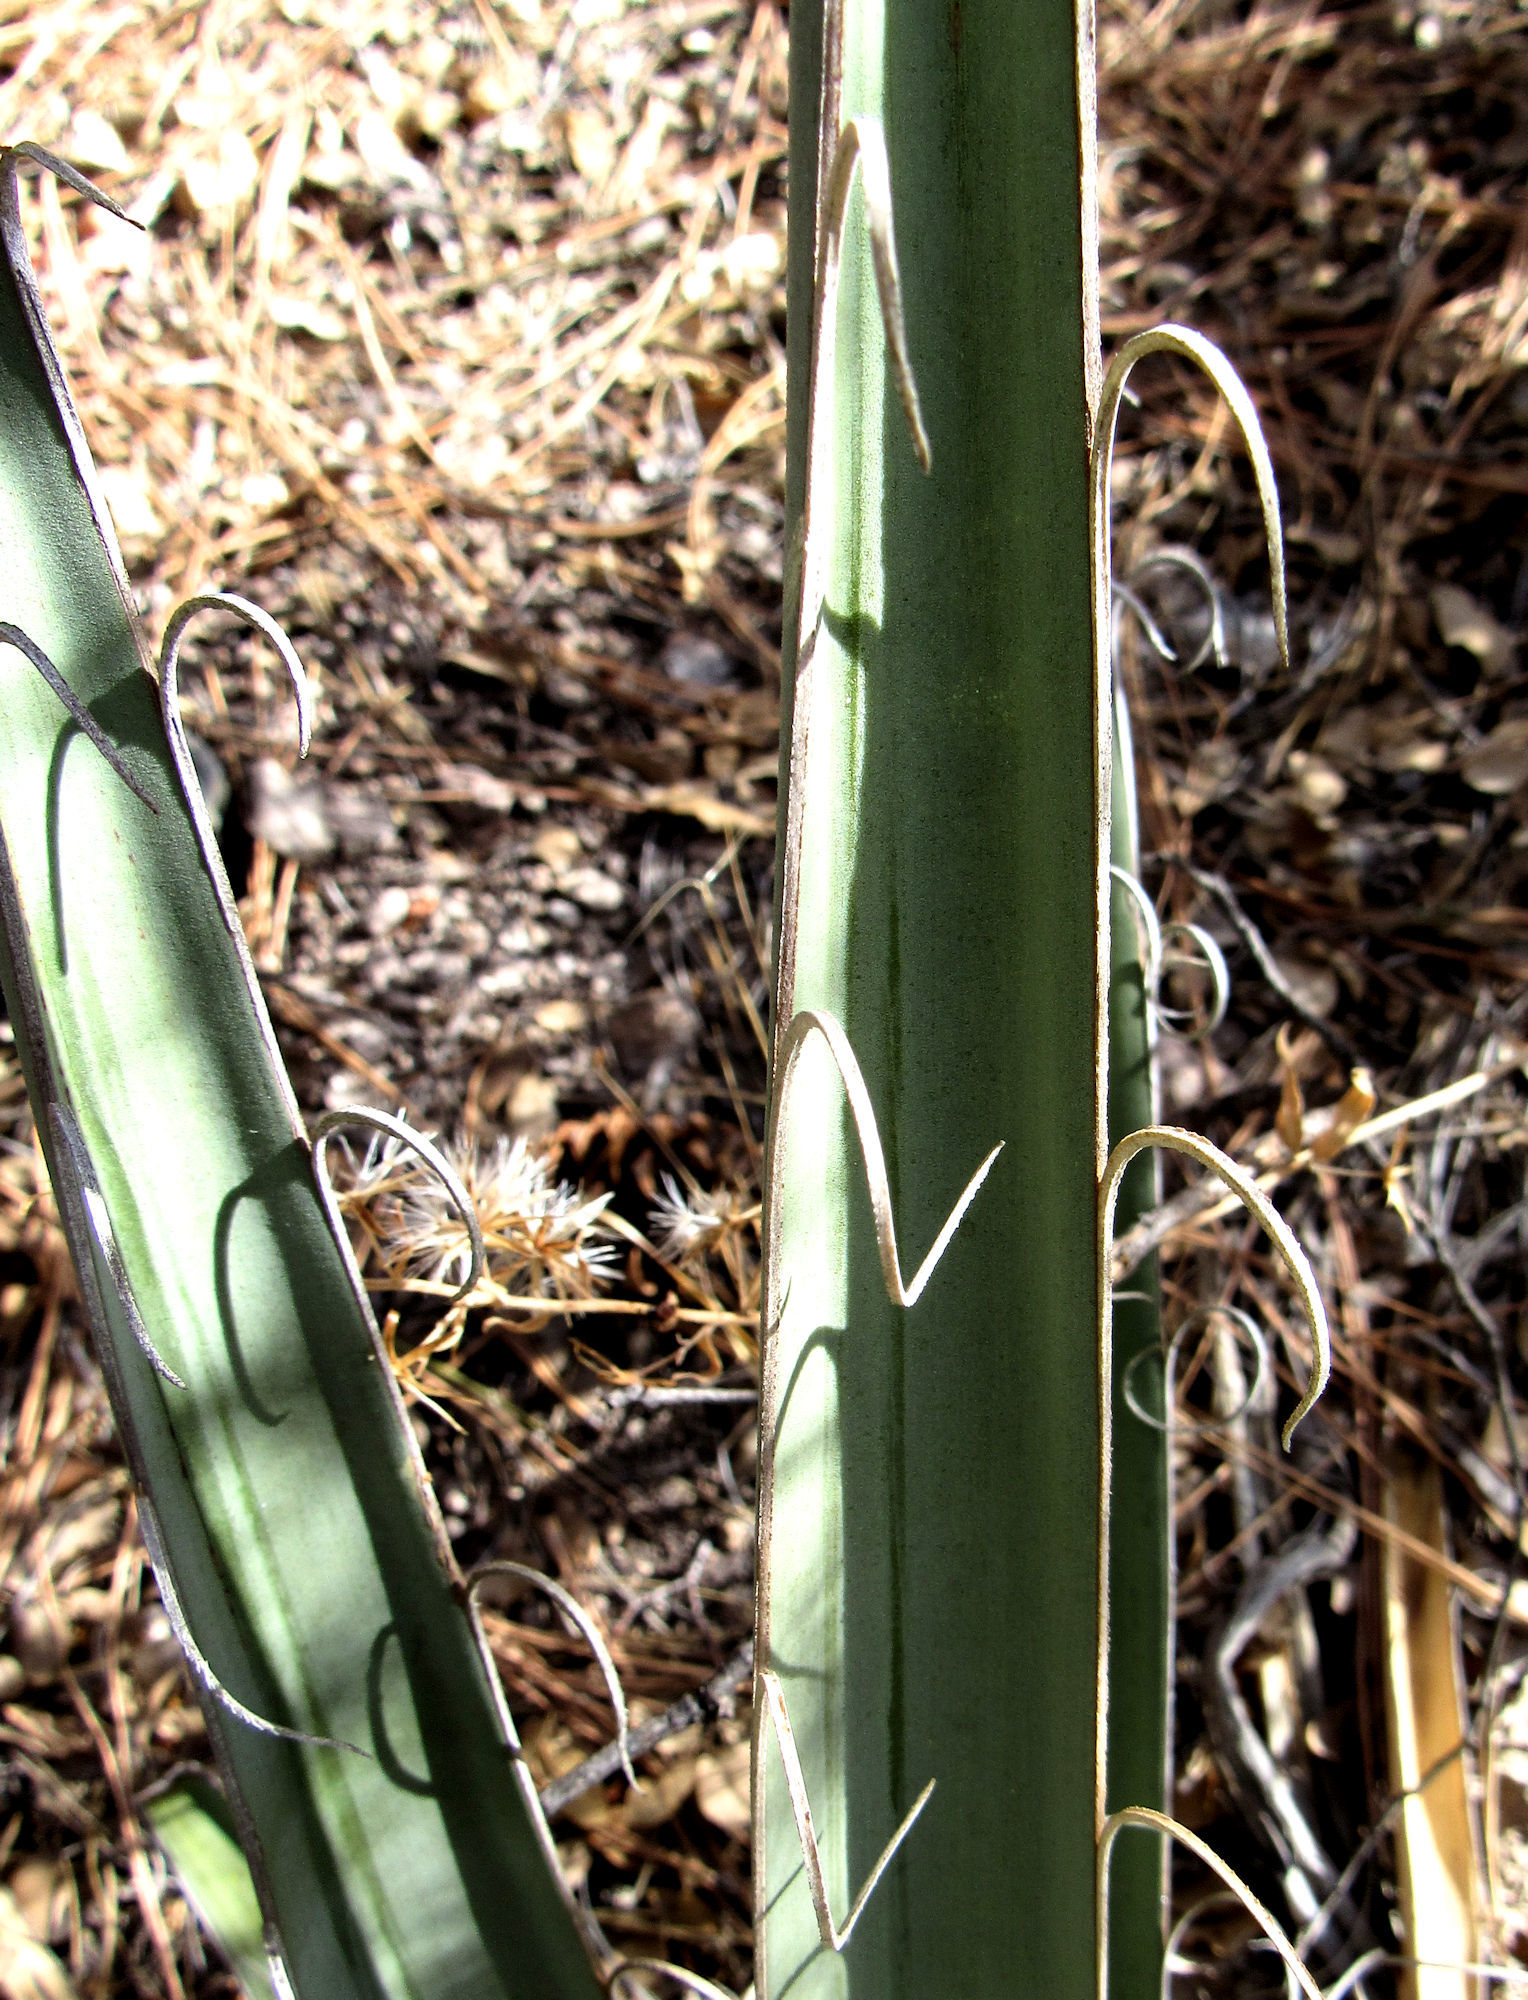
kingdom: Plantae
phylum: Tracheophyta
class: Liliopsida
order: Asparagales
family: Asparagaceae
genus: Yucca
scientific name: Yucca baccata
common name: Banana yucca
